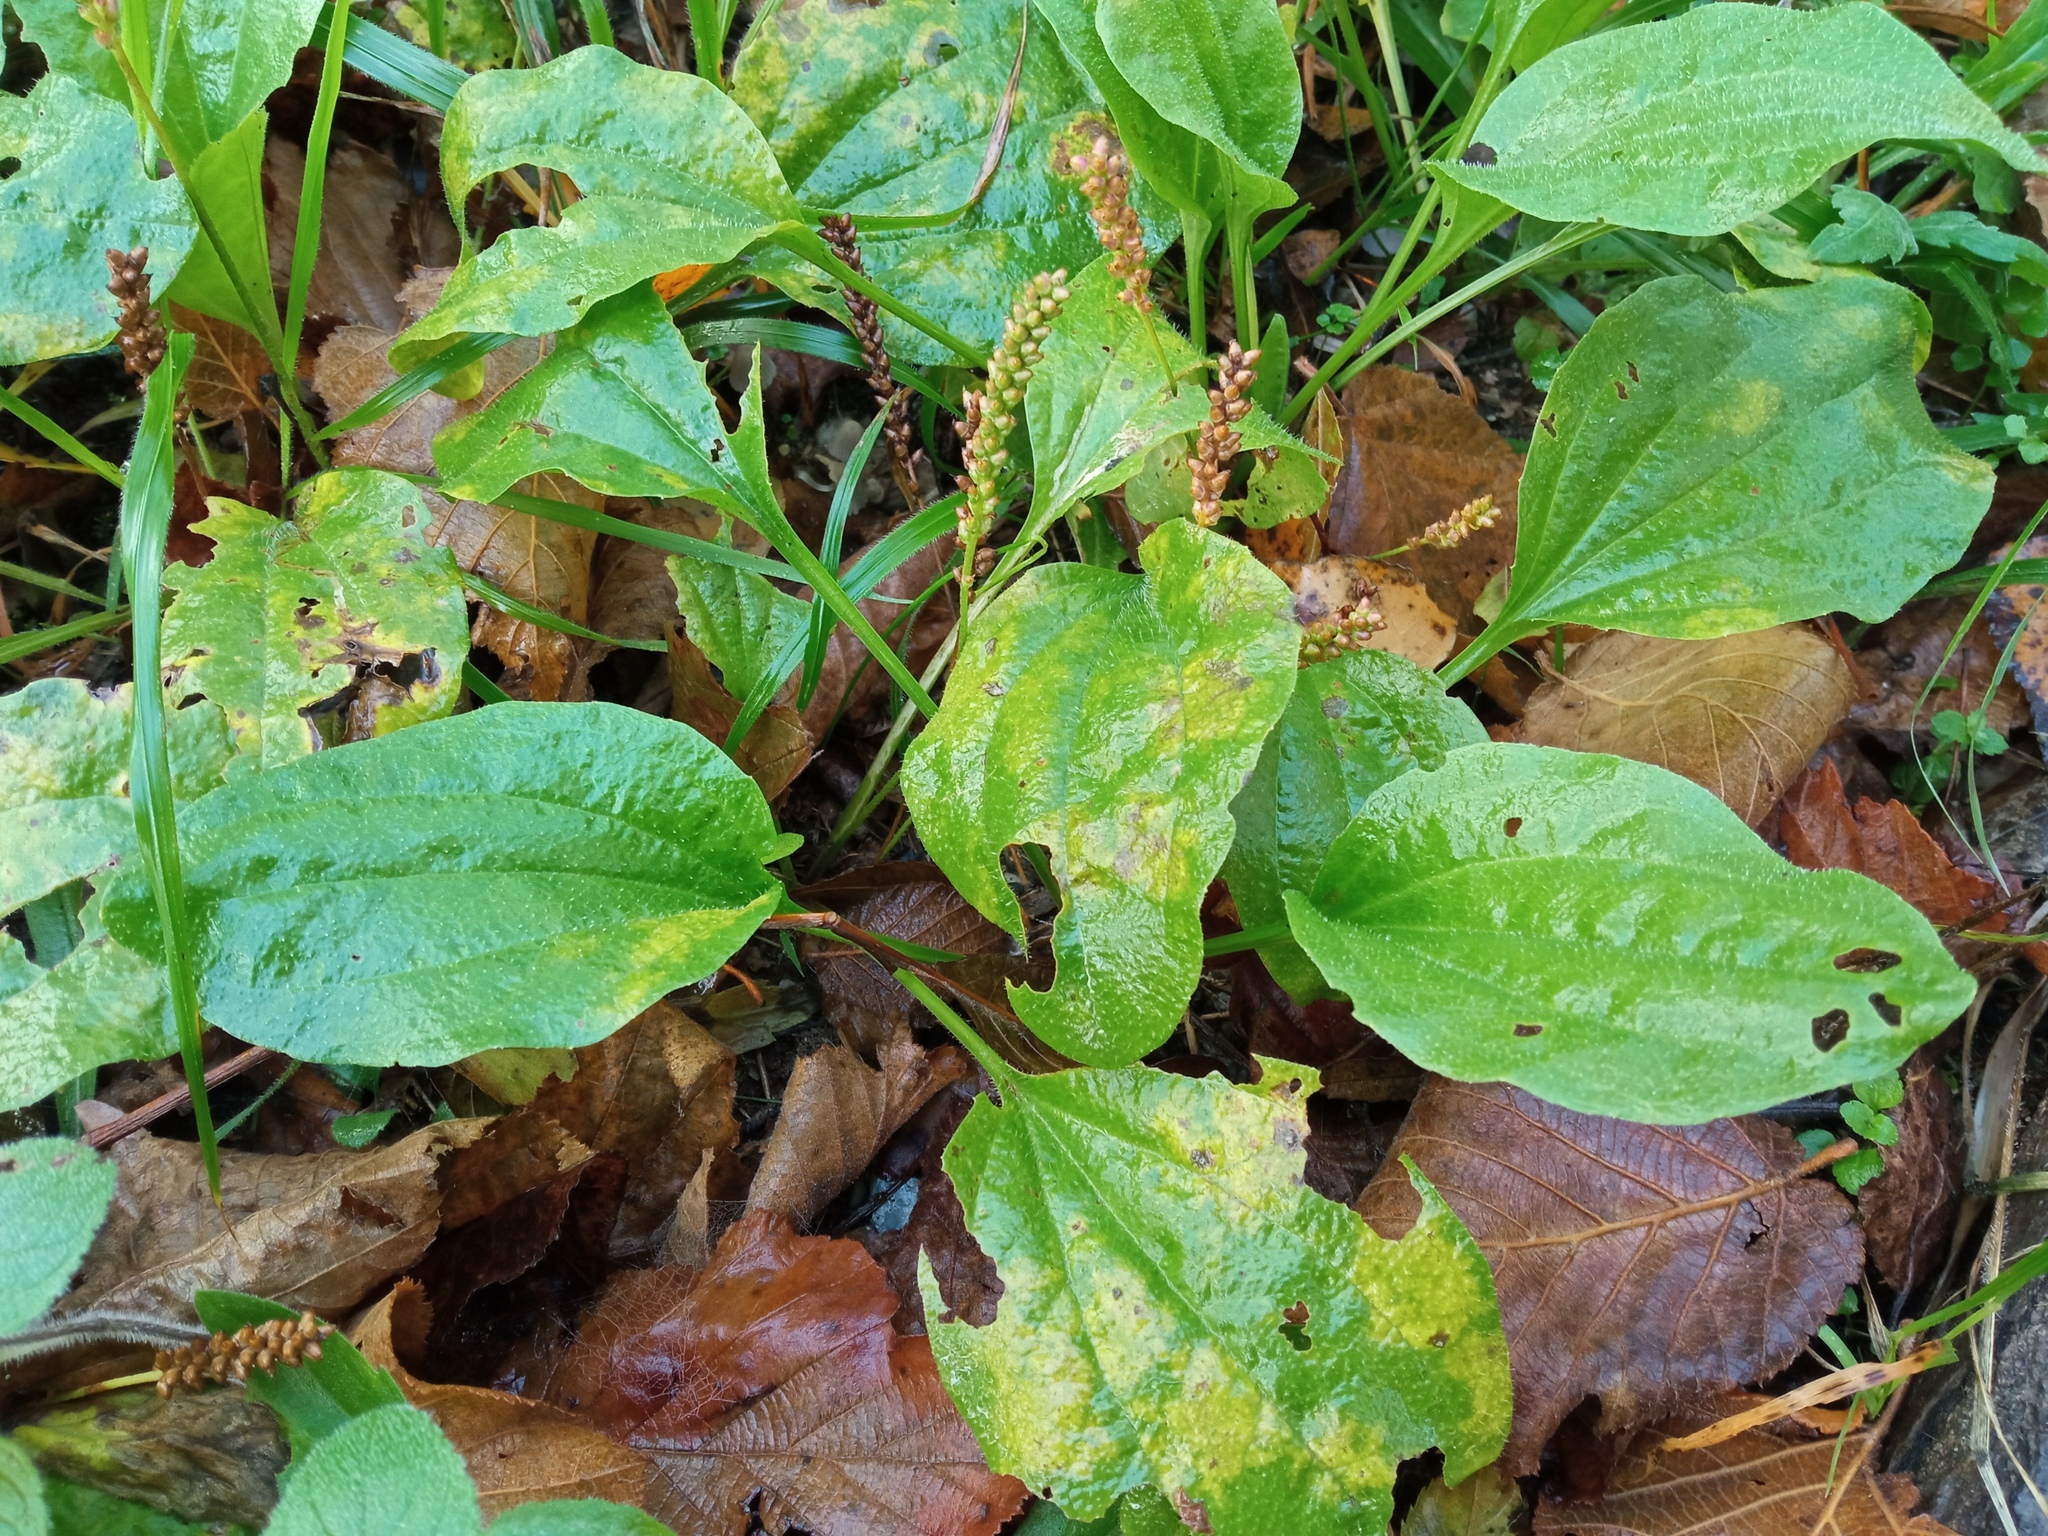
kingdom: Plantae
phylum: Tracheophyta
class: Magnoliopsida
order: Lamiales
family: Plantaginaceae
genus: Plantago
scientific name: Plantago major
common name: Common plantain
